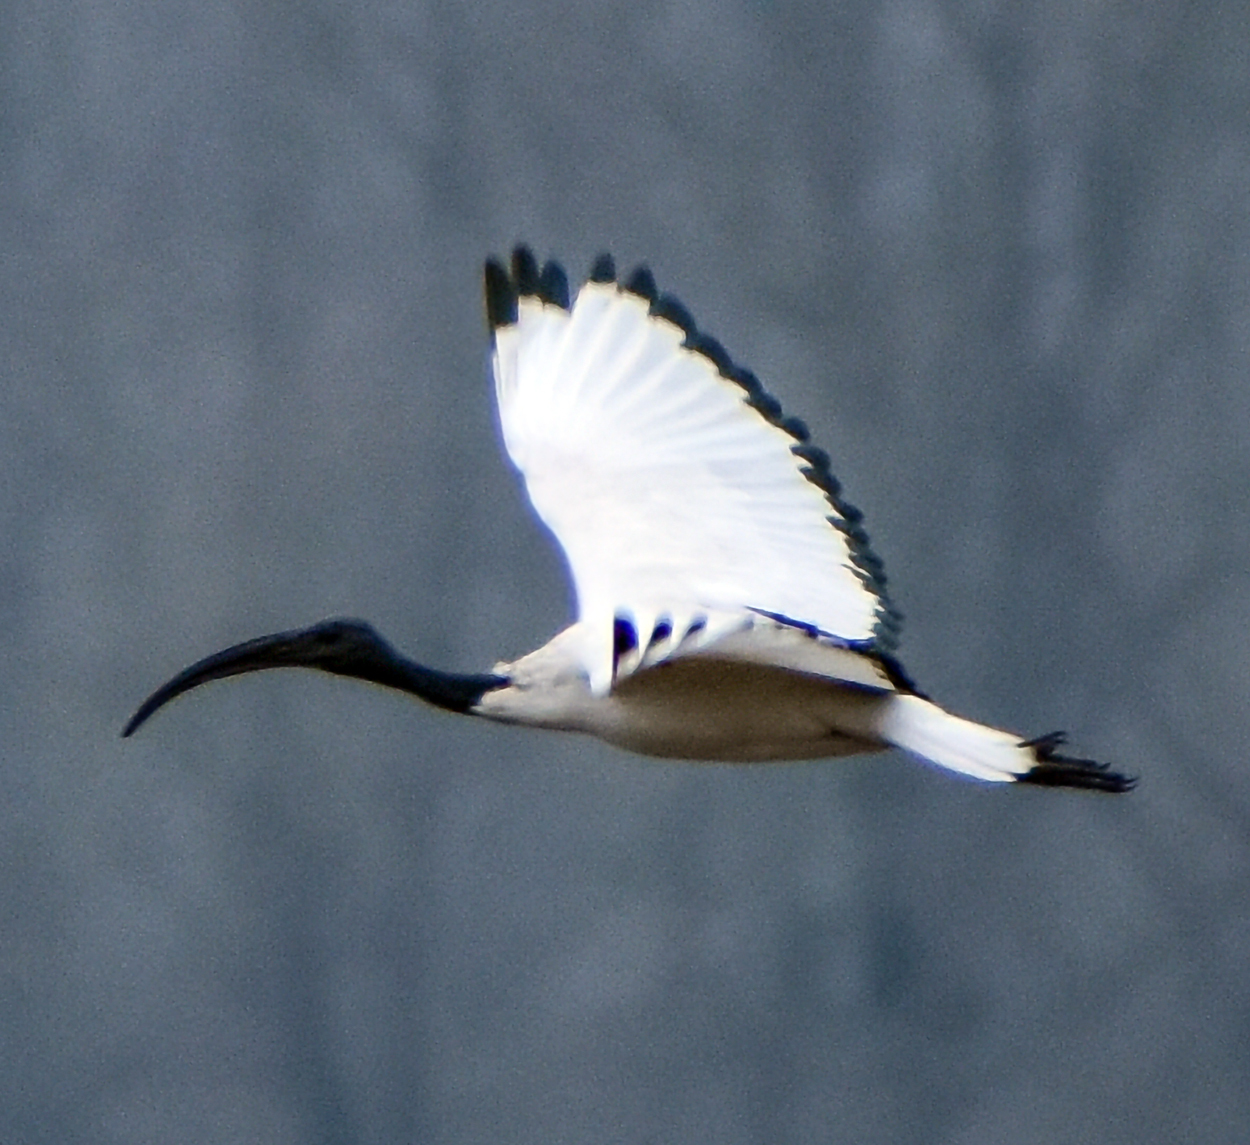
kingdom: Animalia
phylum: Chordata
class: Aves
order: Pelecaniformes
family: Threskiornithidae
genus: Threskiornis
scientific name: Threskiornis aethiopicus
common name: Sacred ibis
